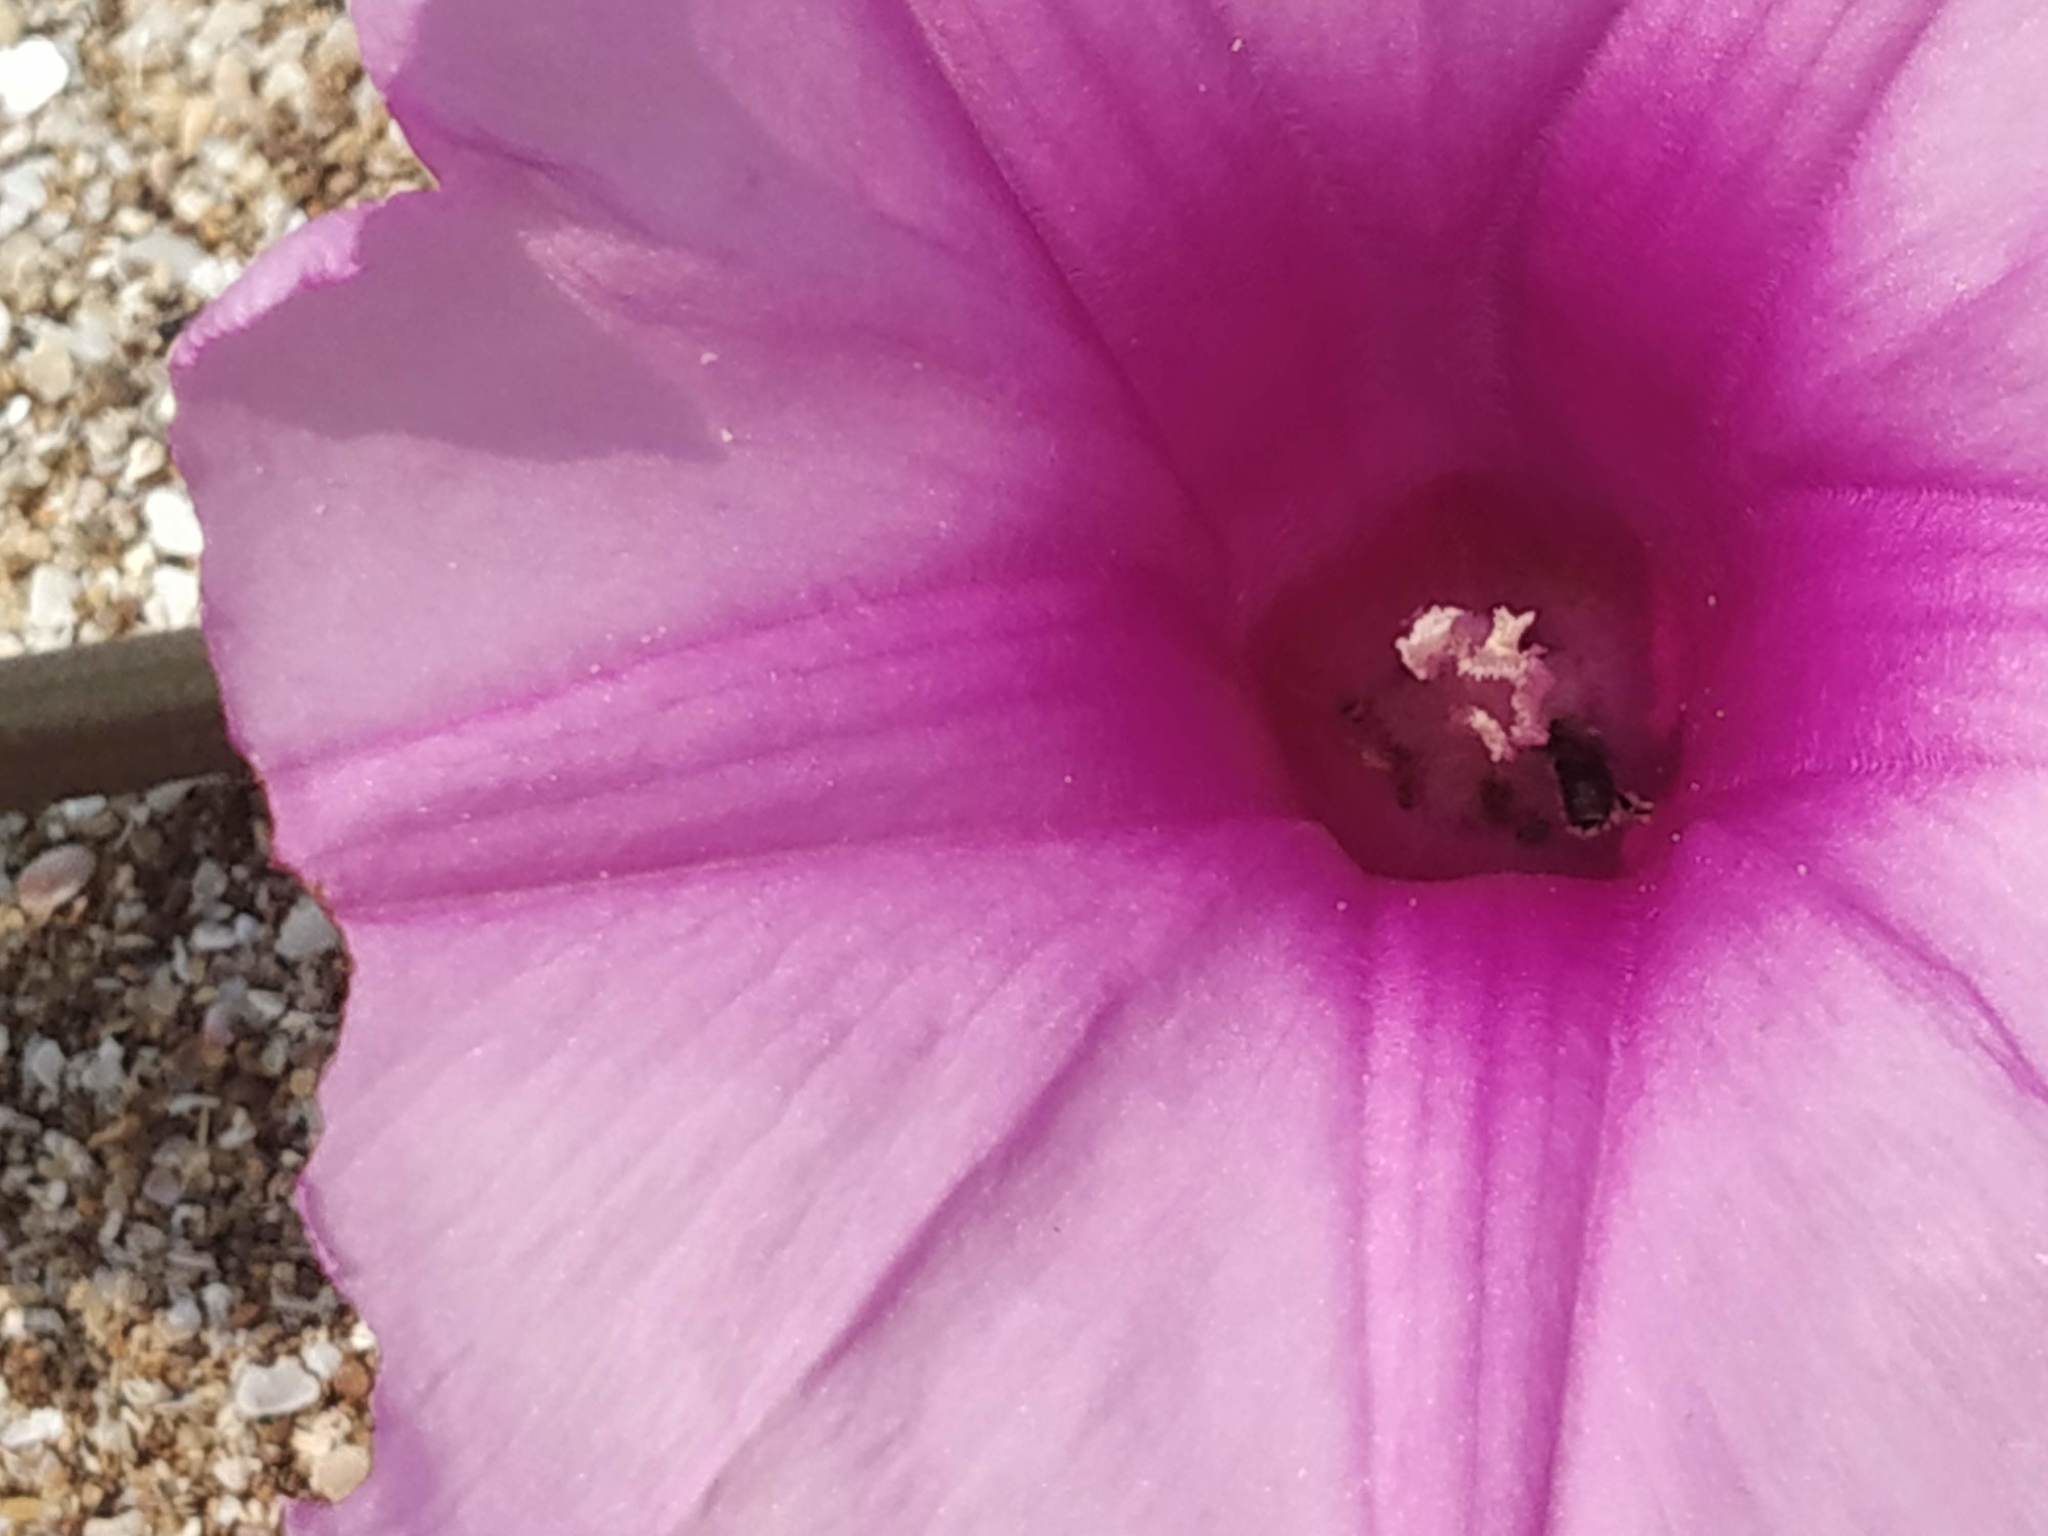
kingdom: Plantae
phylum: Tracheophyta
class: Magnoliopsida
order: Solanales
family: Convolvulaceae
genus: Ipomoea
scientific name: Ipomoea pes-caprae
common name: Beach morning glory
